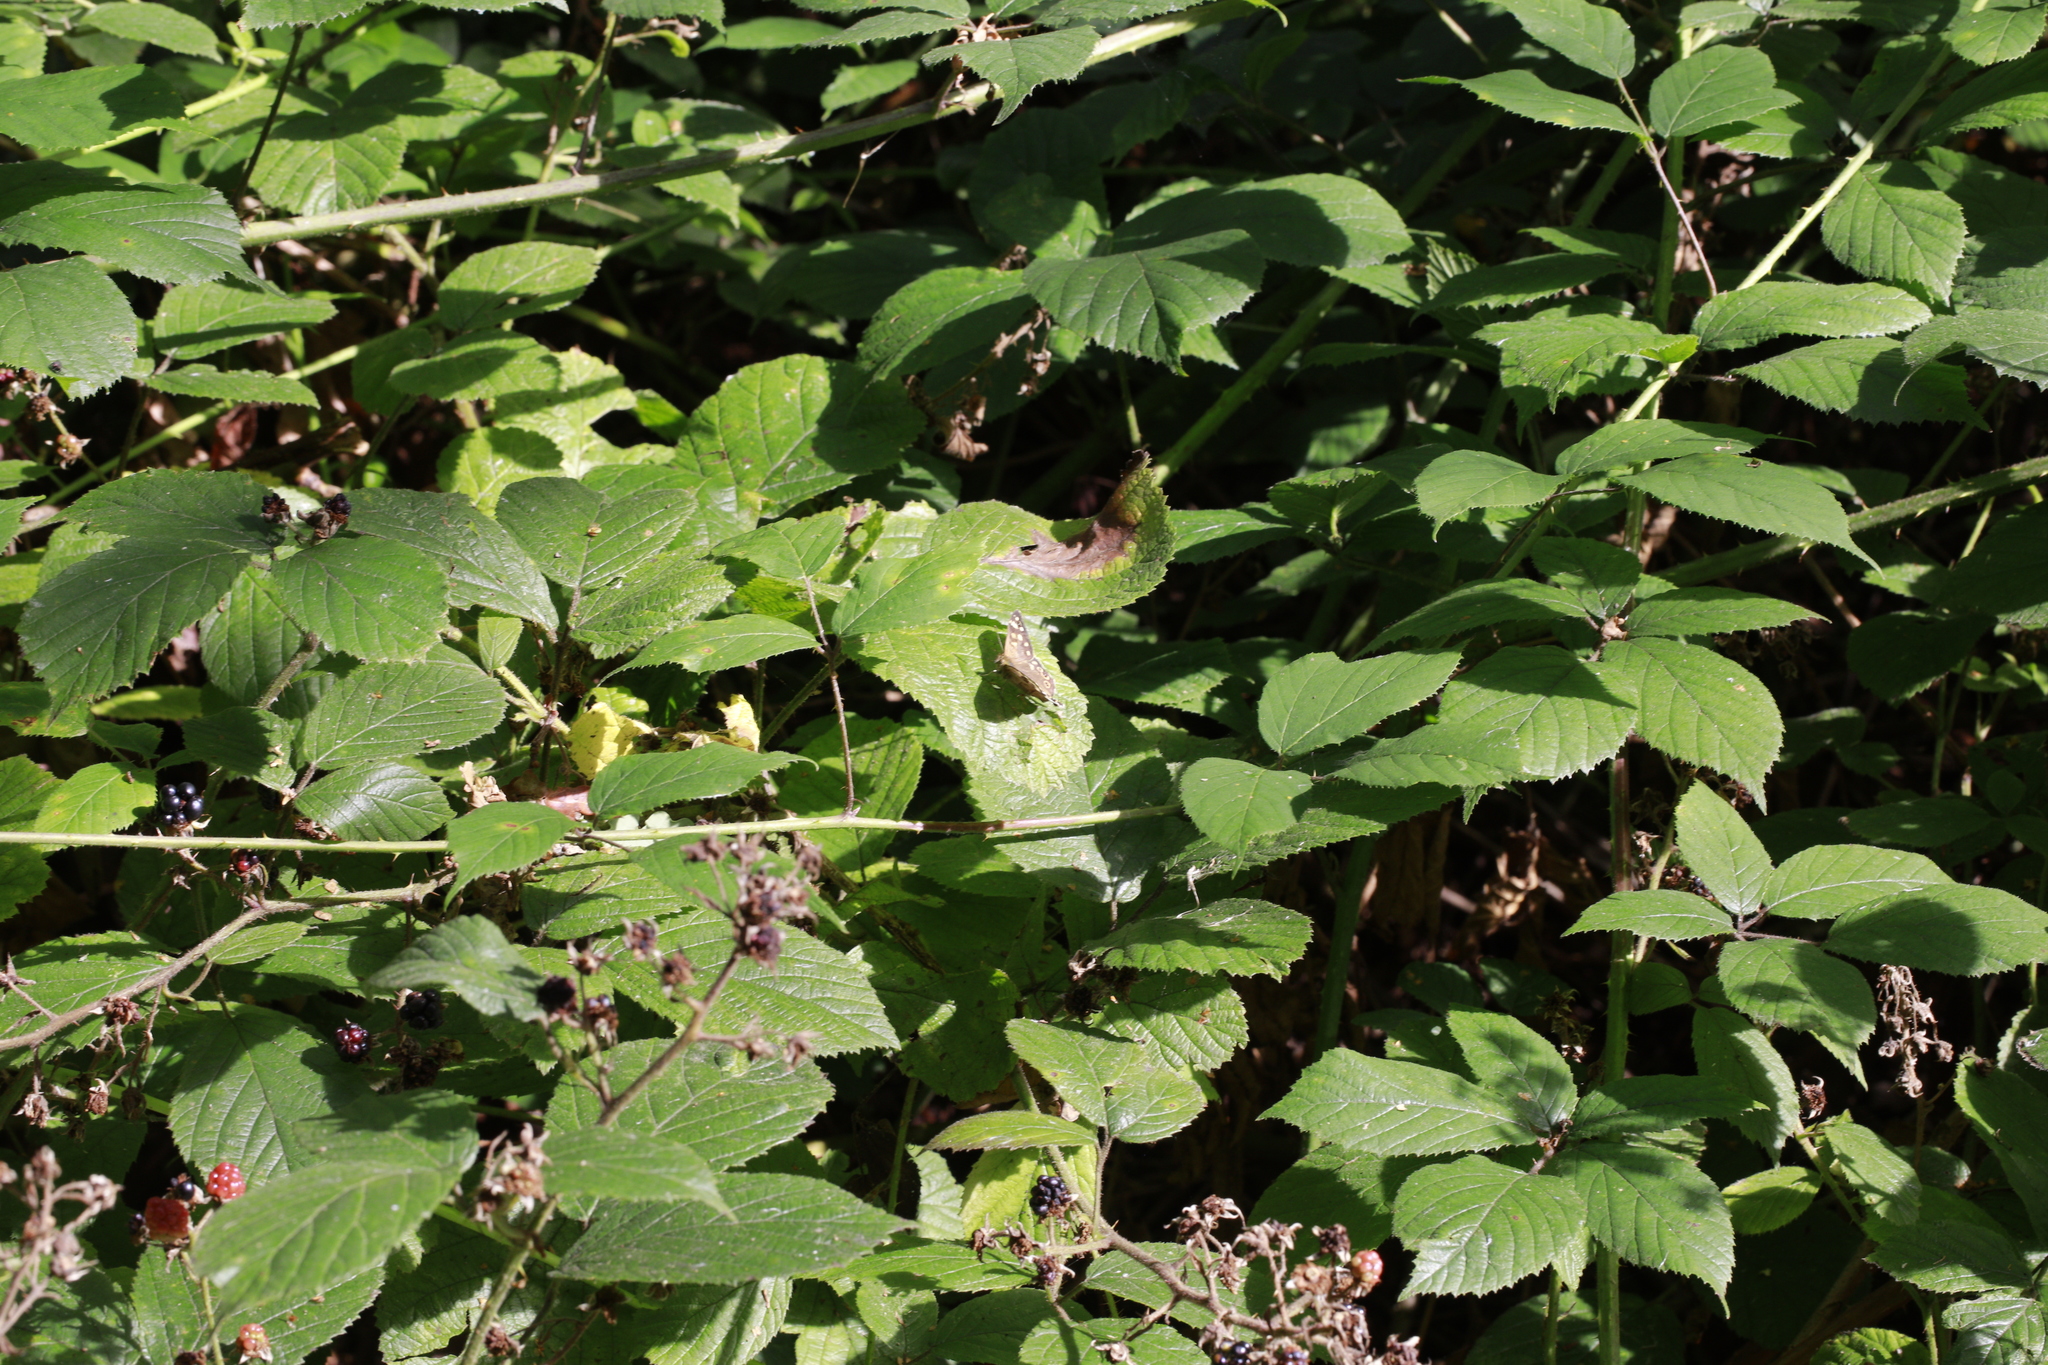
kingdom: Animalia
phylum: Arthropoda
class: Insecta
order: Lepidoptera
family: Nymphalidae
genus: Pararge
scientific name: Pararge aegeria
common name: Speckled wood
